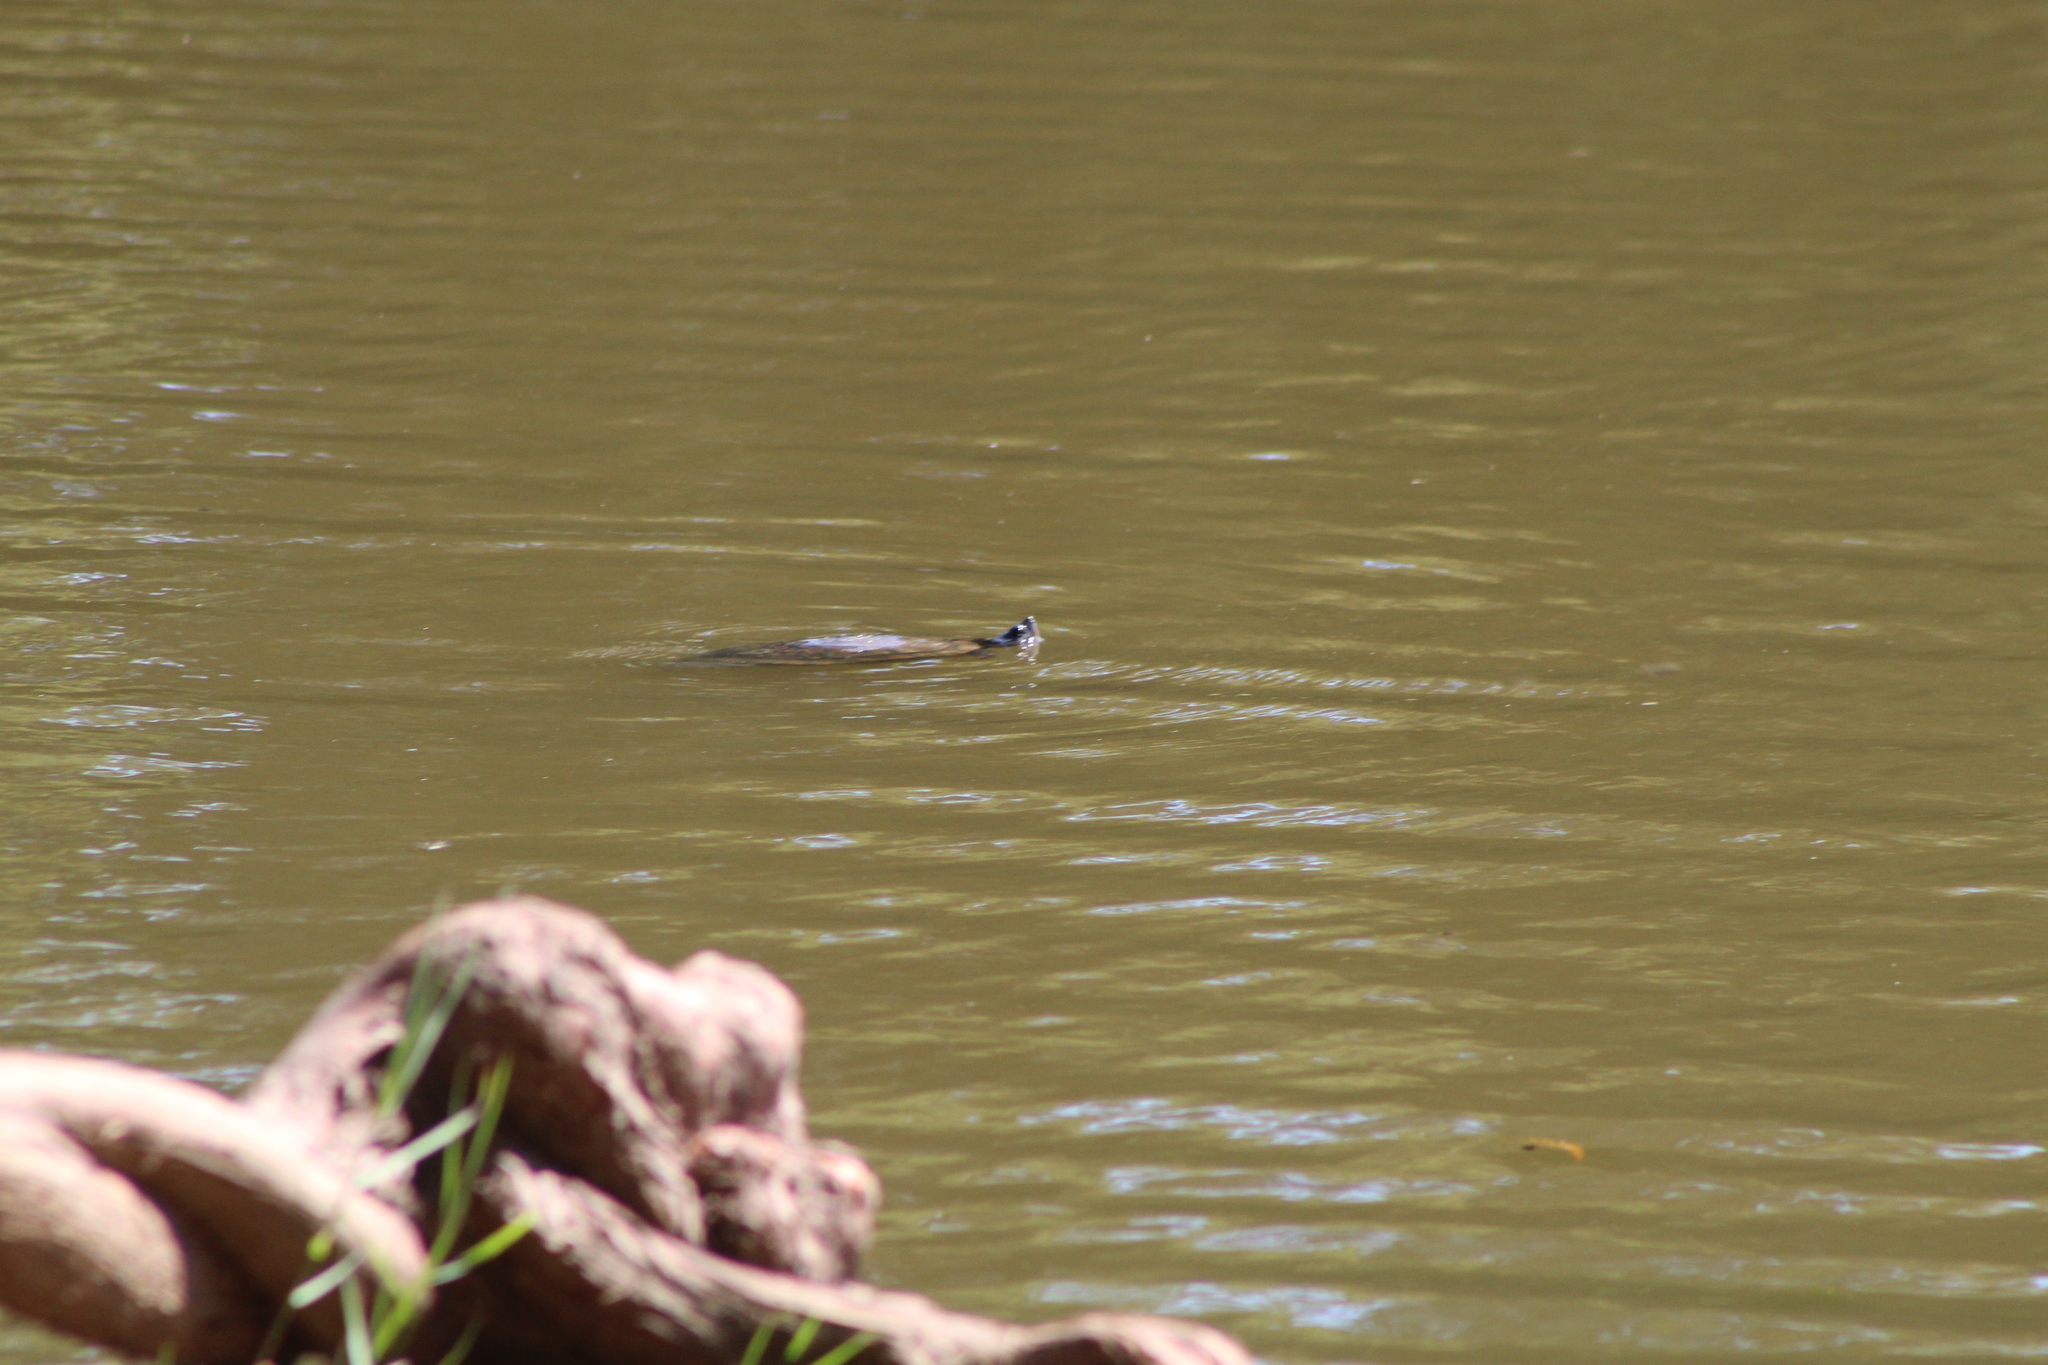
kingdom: Animalia
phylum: Chordata
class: Testudines
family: Emydidae
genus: Trachemys
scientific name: Trachemys scripta
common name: Slider
